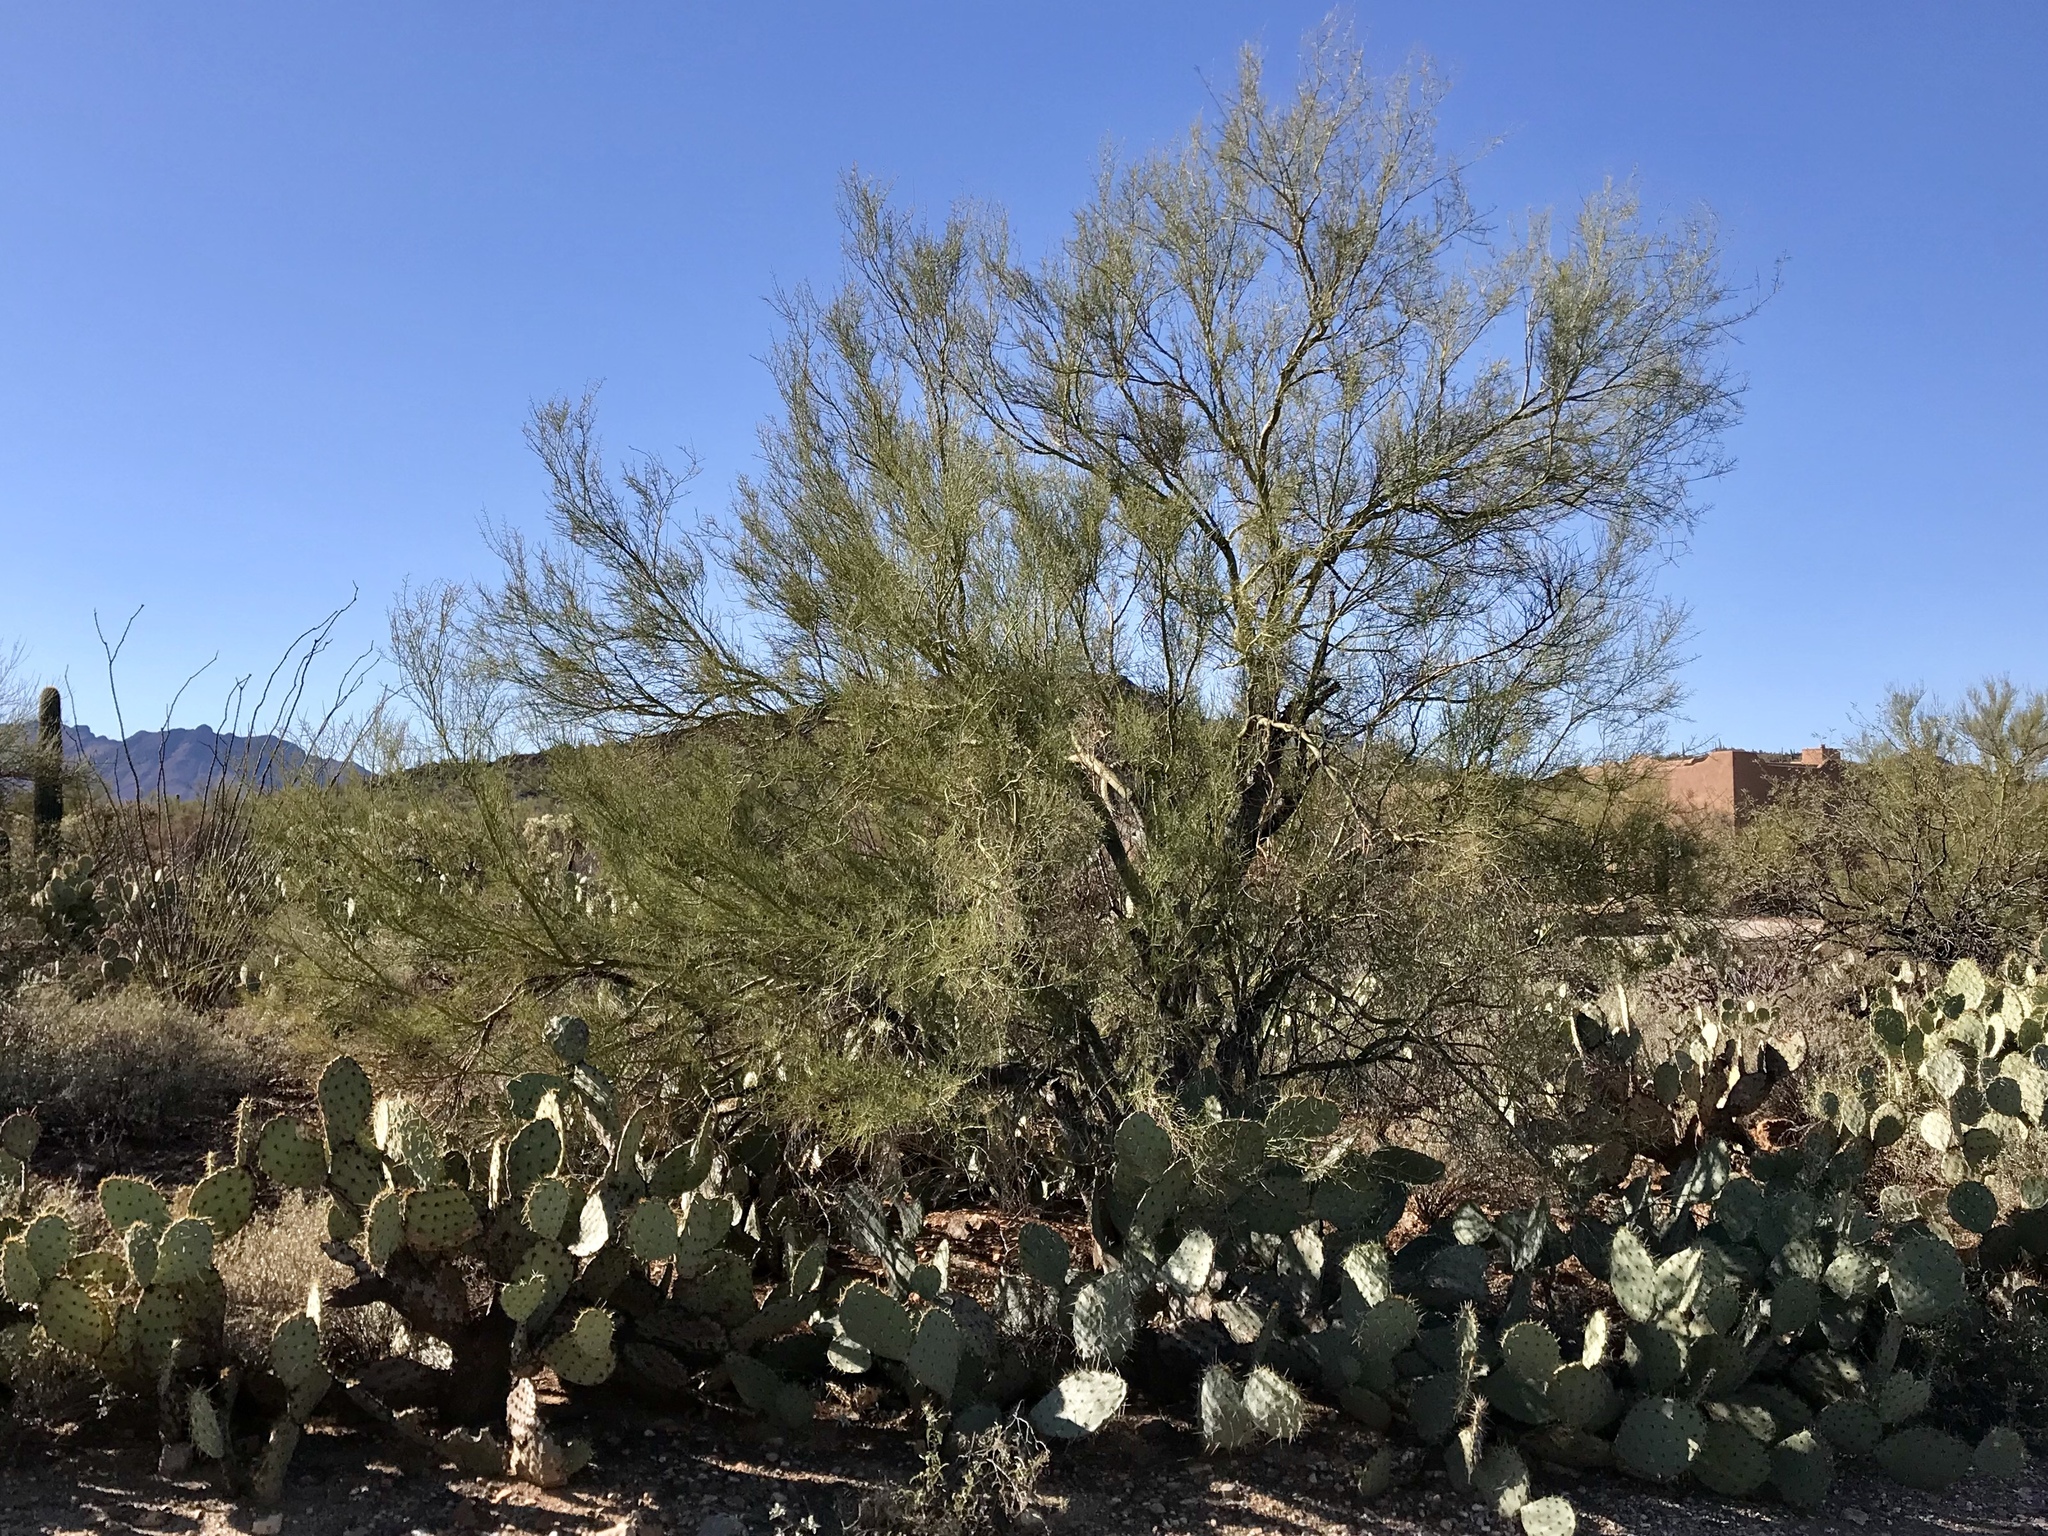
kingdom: Plantae
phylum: Tracheophyta
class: Magnoliopsida
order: Fabales
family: Fabaceae
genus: Parkinsonia
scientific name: Parkinsonia microphylla
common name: Yellow paloverde
